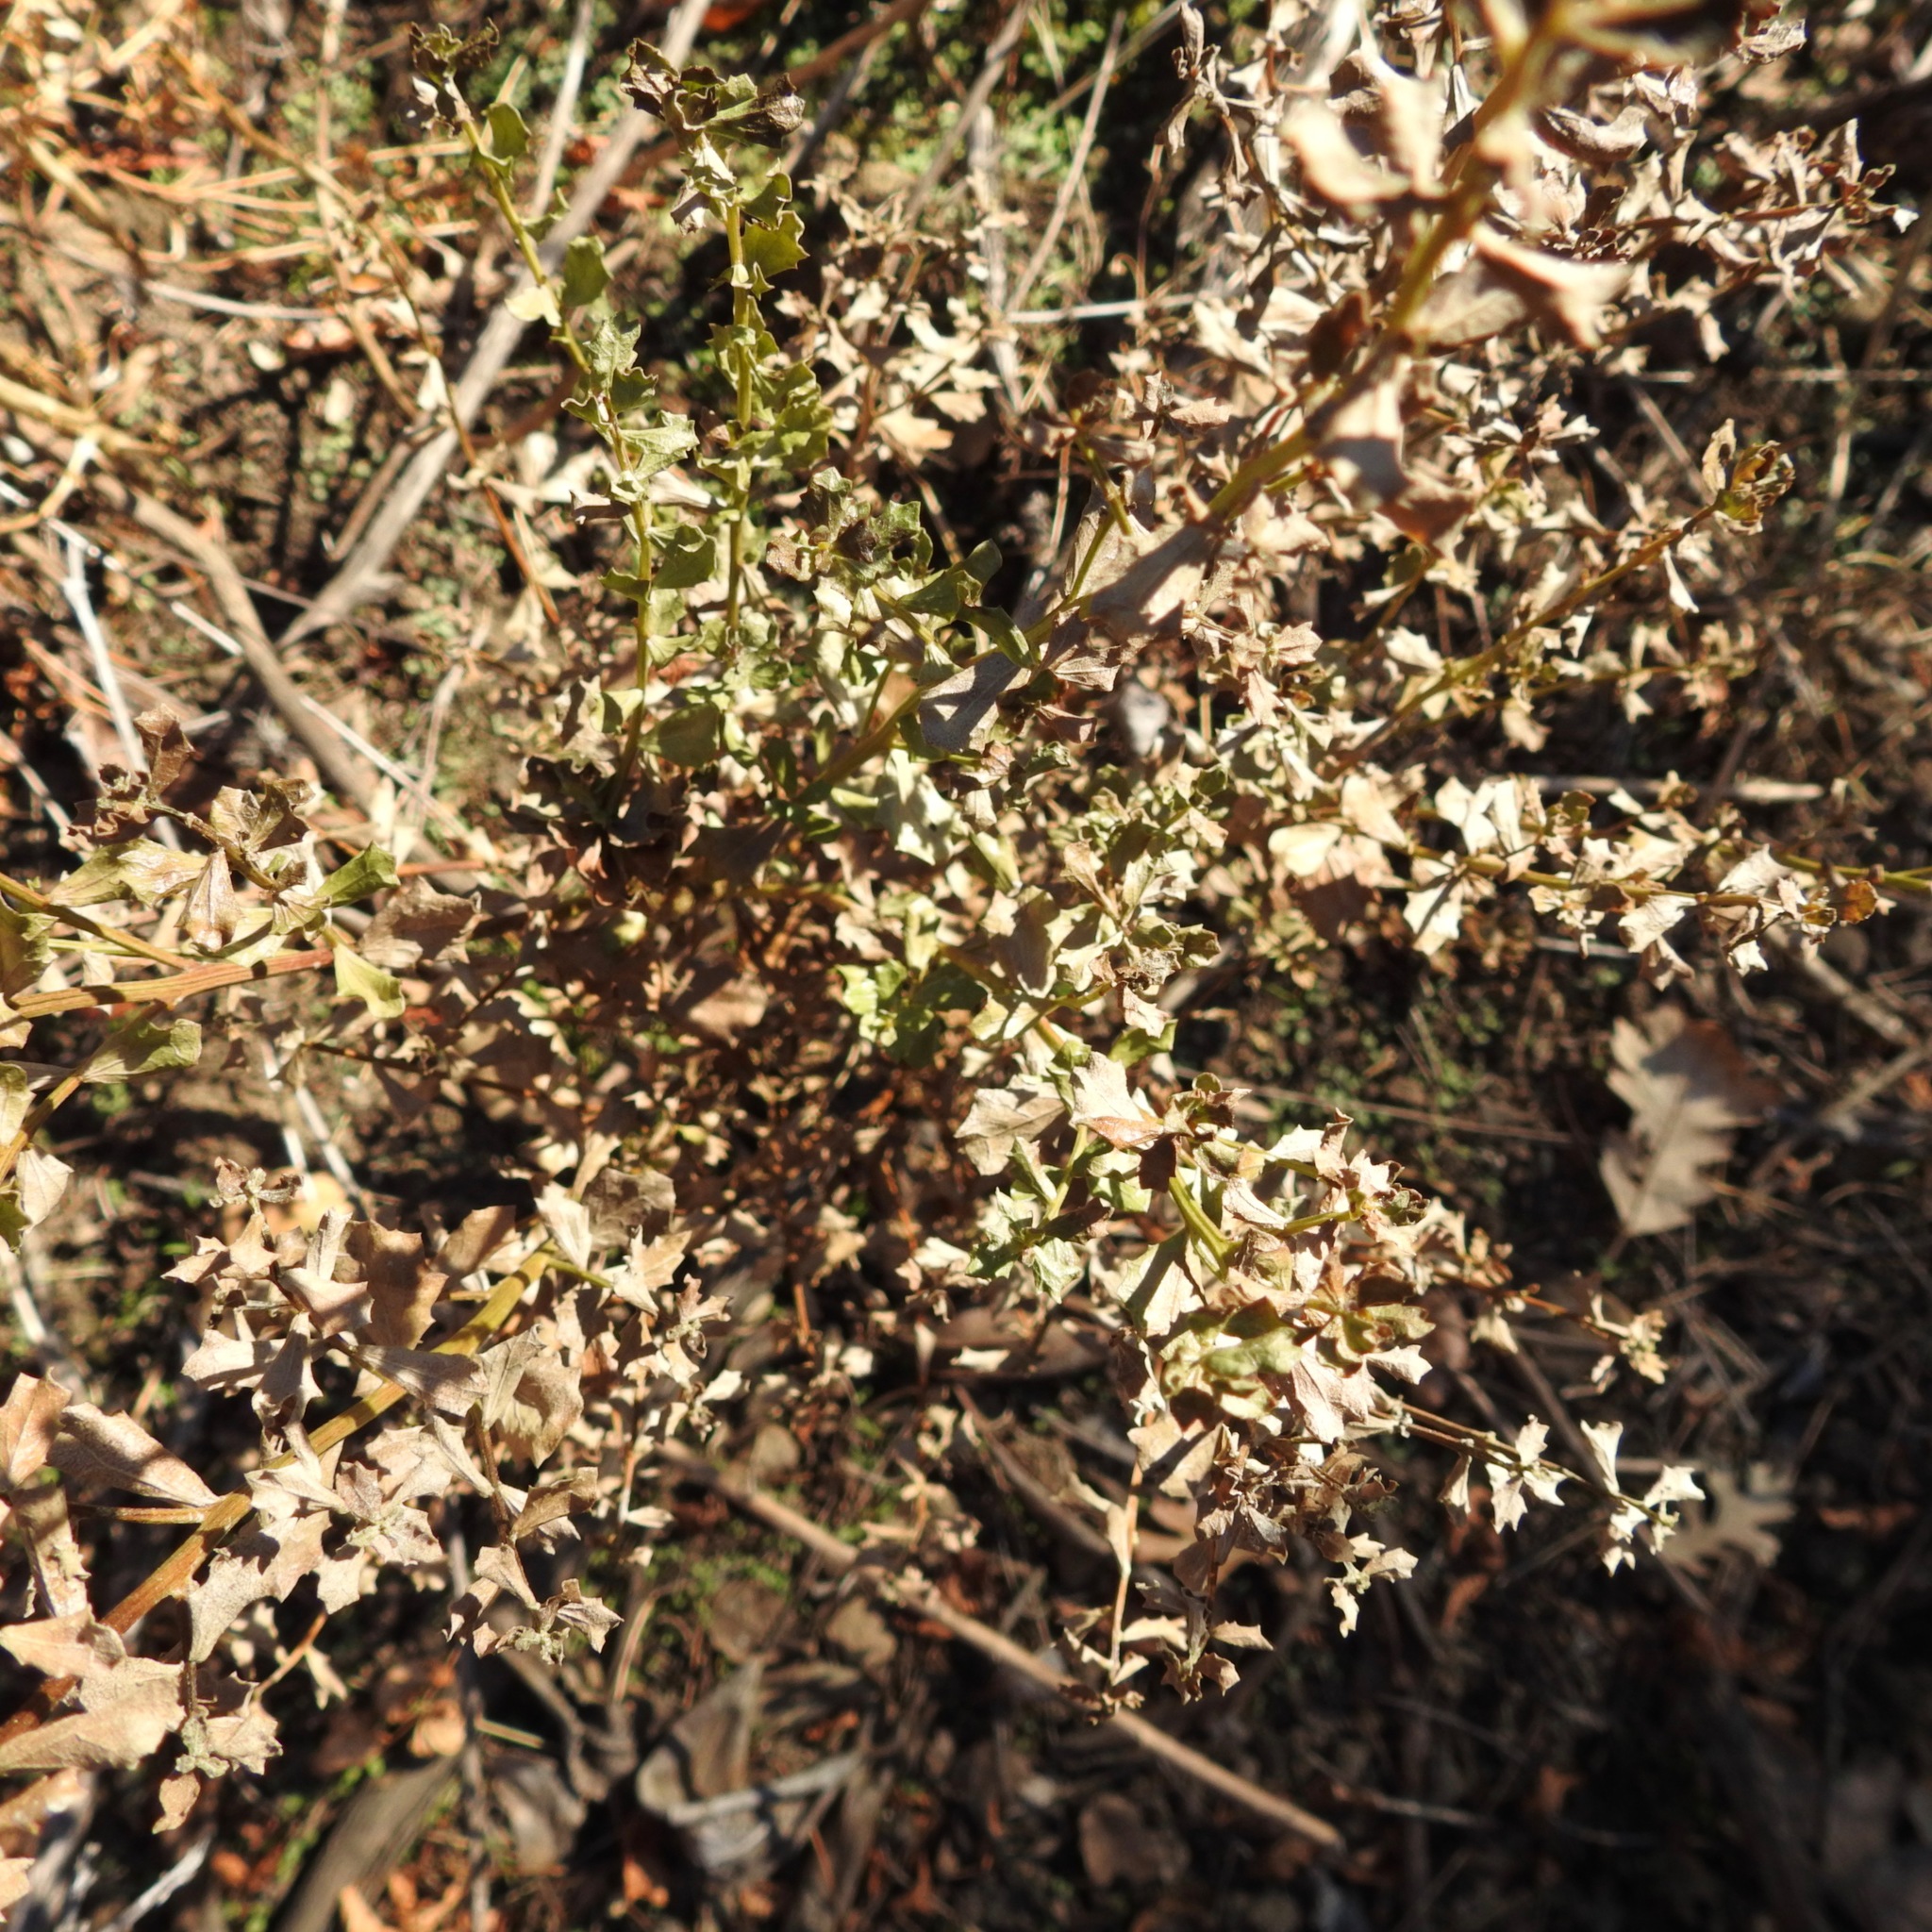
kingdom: Plantae
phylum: Tracheophyta
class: Magnoliopsida
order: Asterales
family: Asteraceae
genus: Baccharis
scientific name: Baccharis pilularis
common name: Coyotebrush
